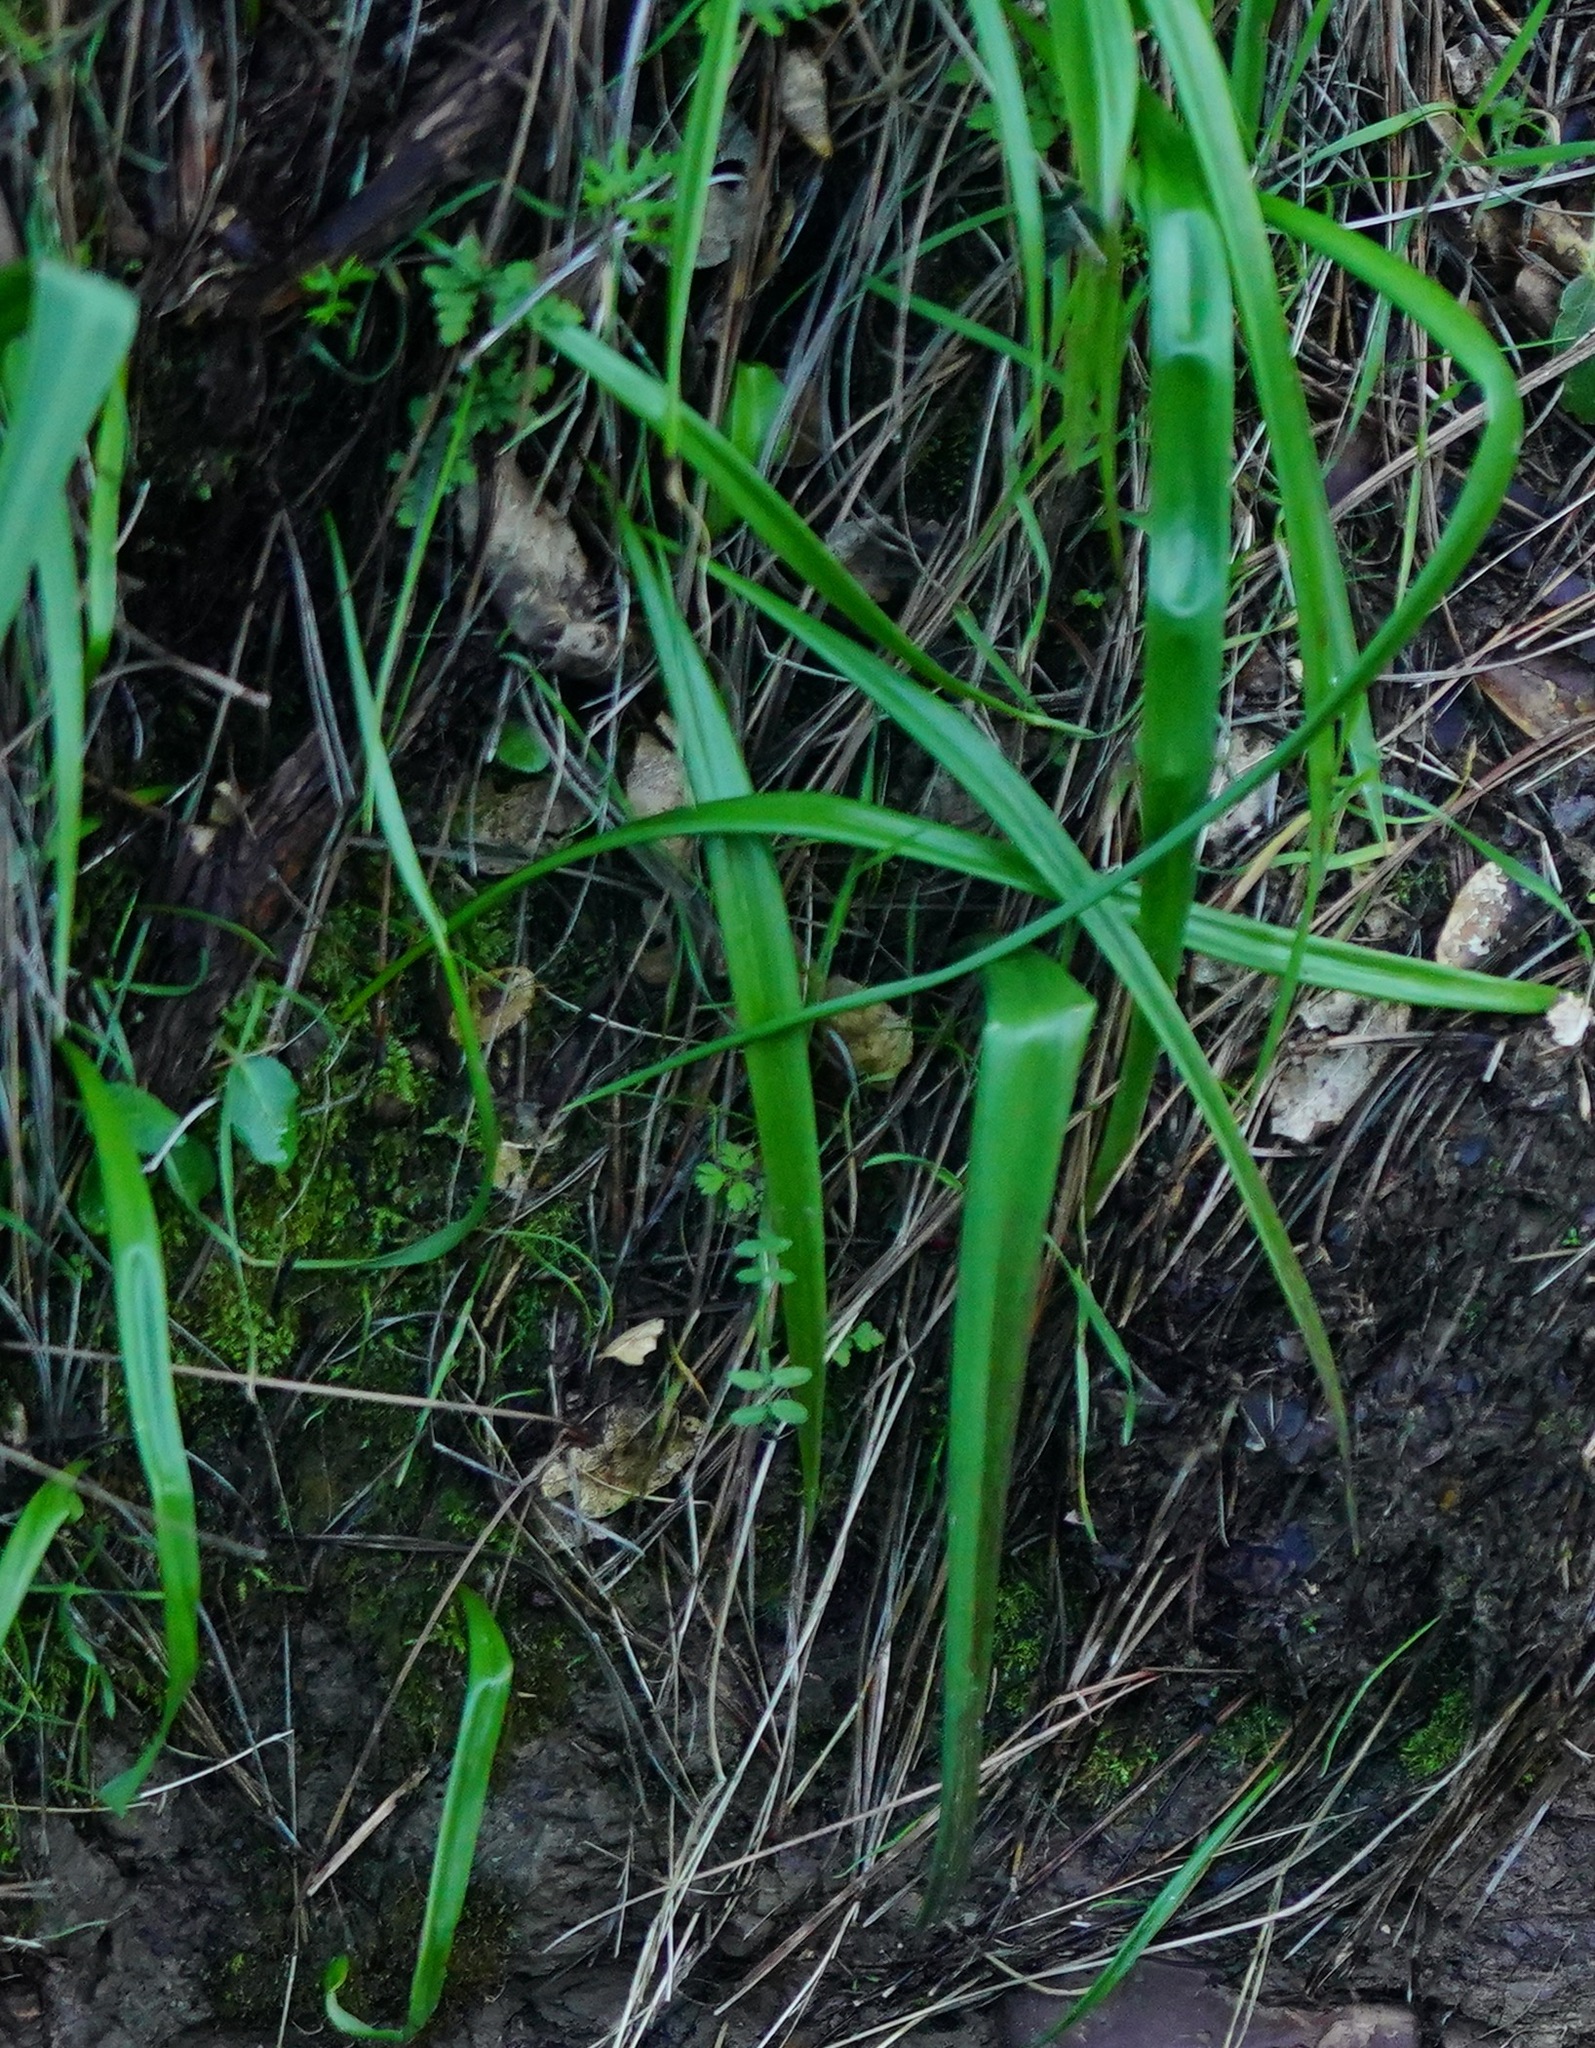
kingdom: Plantae
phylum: Tracheophyta
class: Liliopsida
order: Liliales
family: Liliaceae
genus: Calochortus
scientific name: Calochortus albus
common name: Fairy-lantern
